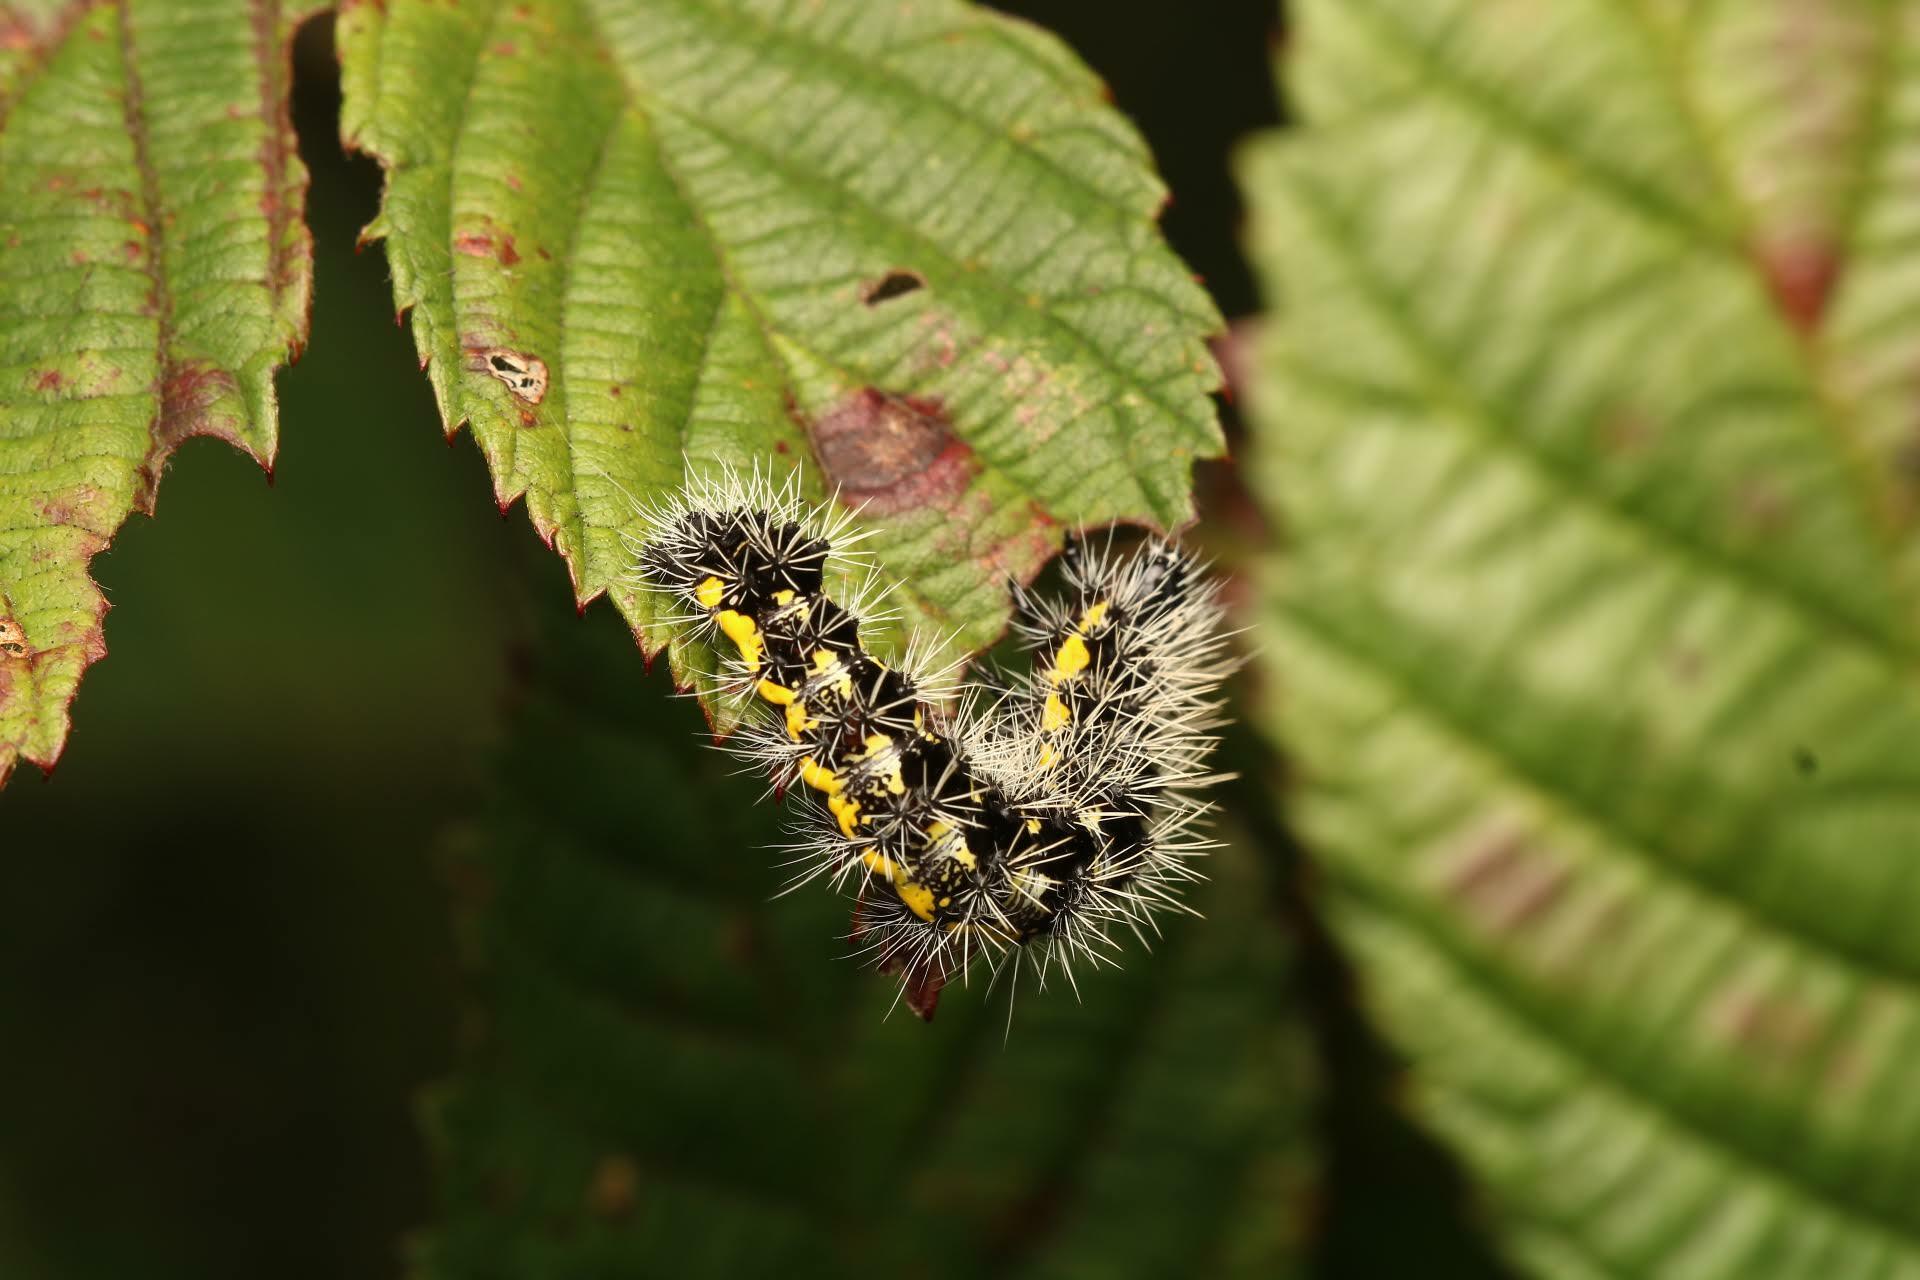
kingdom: Animalia
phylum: Arthropoda
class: Insecta
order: Lepidoptera
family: Noctuidae
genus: Acronicta
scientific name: Acronicta oblinita
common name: Smeared dagger
